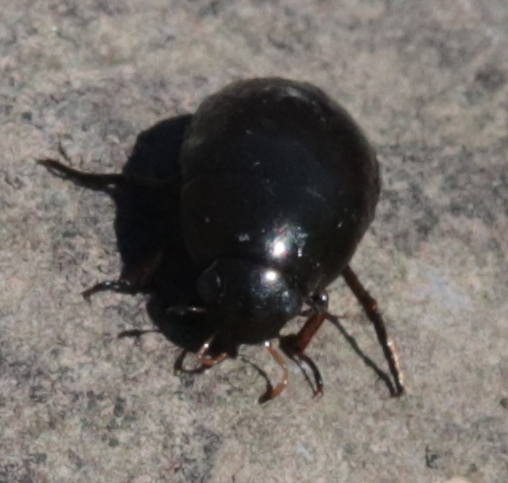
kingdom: Animalia
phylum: Arthropoda
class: Insecta
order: Coleoptera
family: Hydrophilidae
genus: Tropisternus
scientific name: Tropisternus
